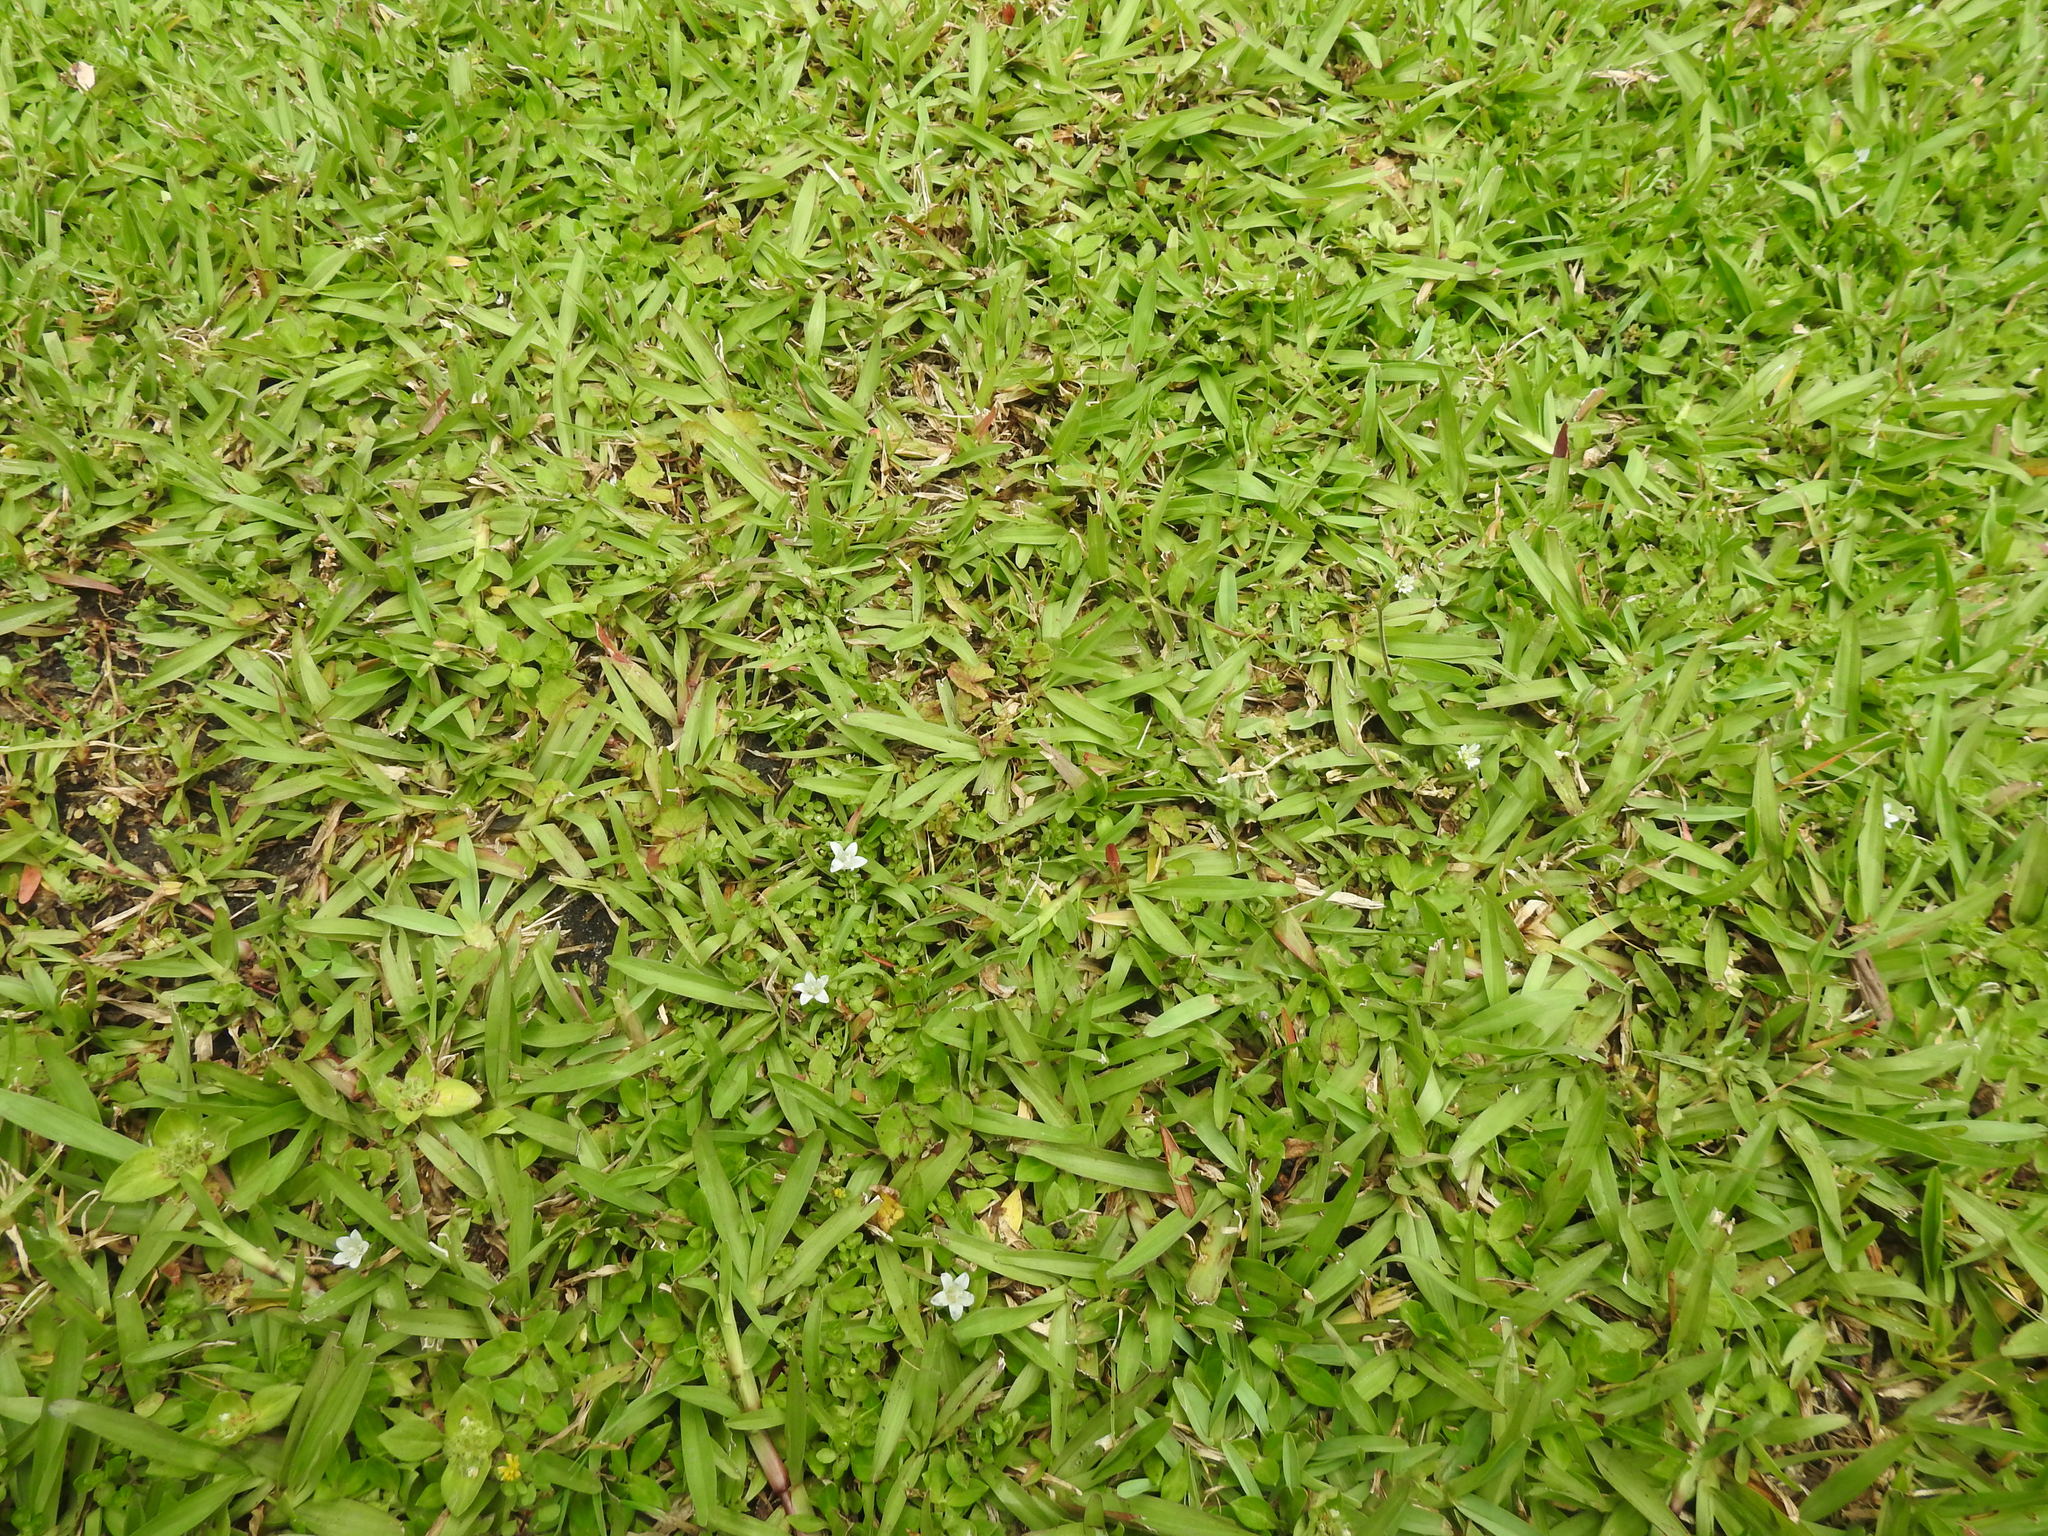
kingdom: Plantae
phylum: Tracheophyta
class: Magnoliopsida
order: Asterales
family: Campanulaceae
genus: Wahlenbergia
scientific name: Wahlenbergia procumbens
